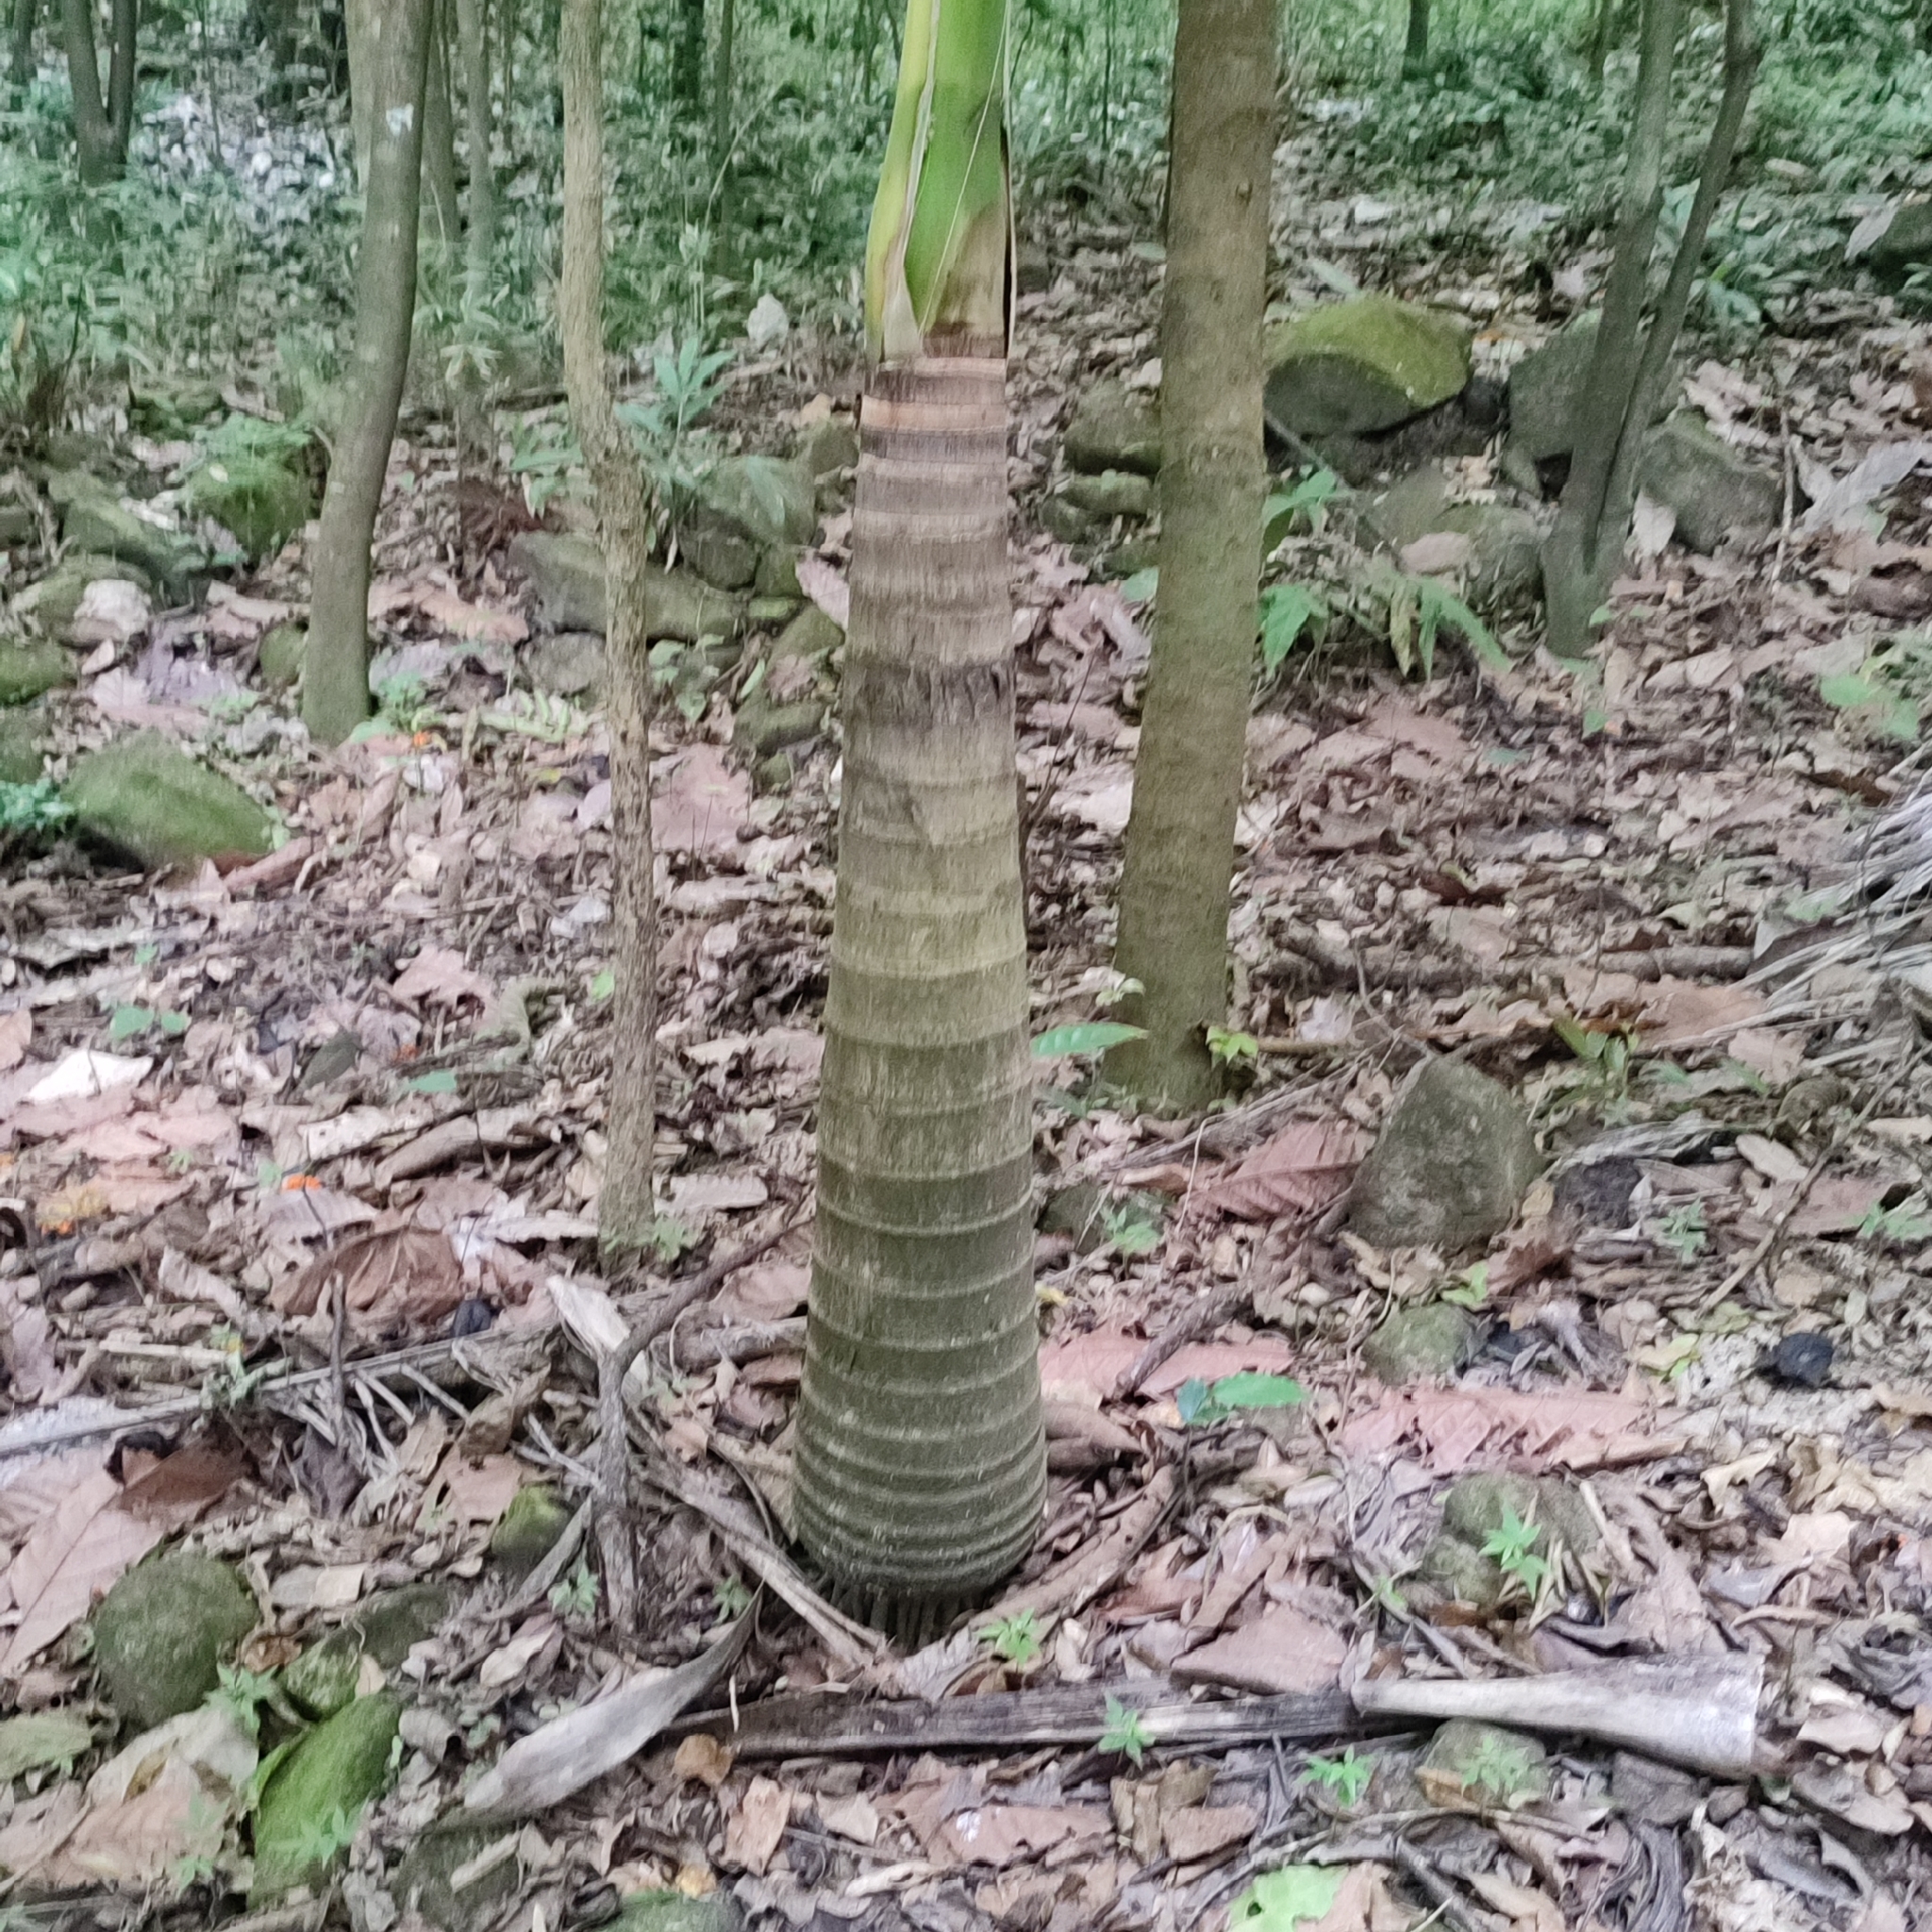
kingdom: Plantae
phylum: Tracheophyta
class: Liliopsida
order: Arecales
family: Arecaceae
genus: Prestoea
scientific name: Prestoea acuminata
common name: Sierran palm
